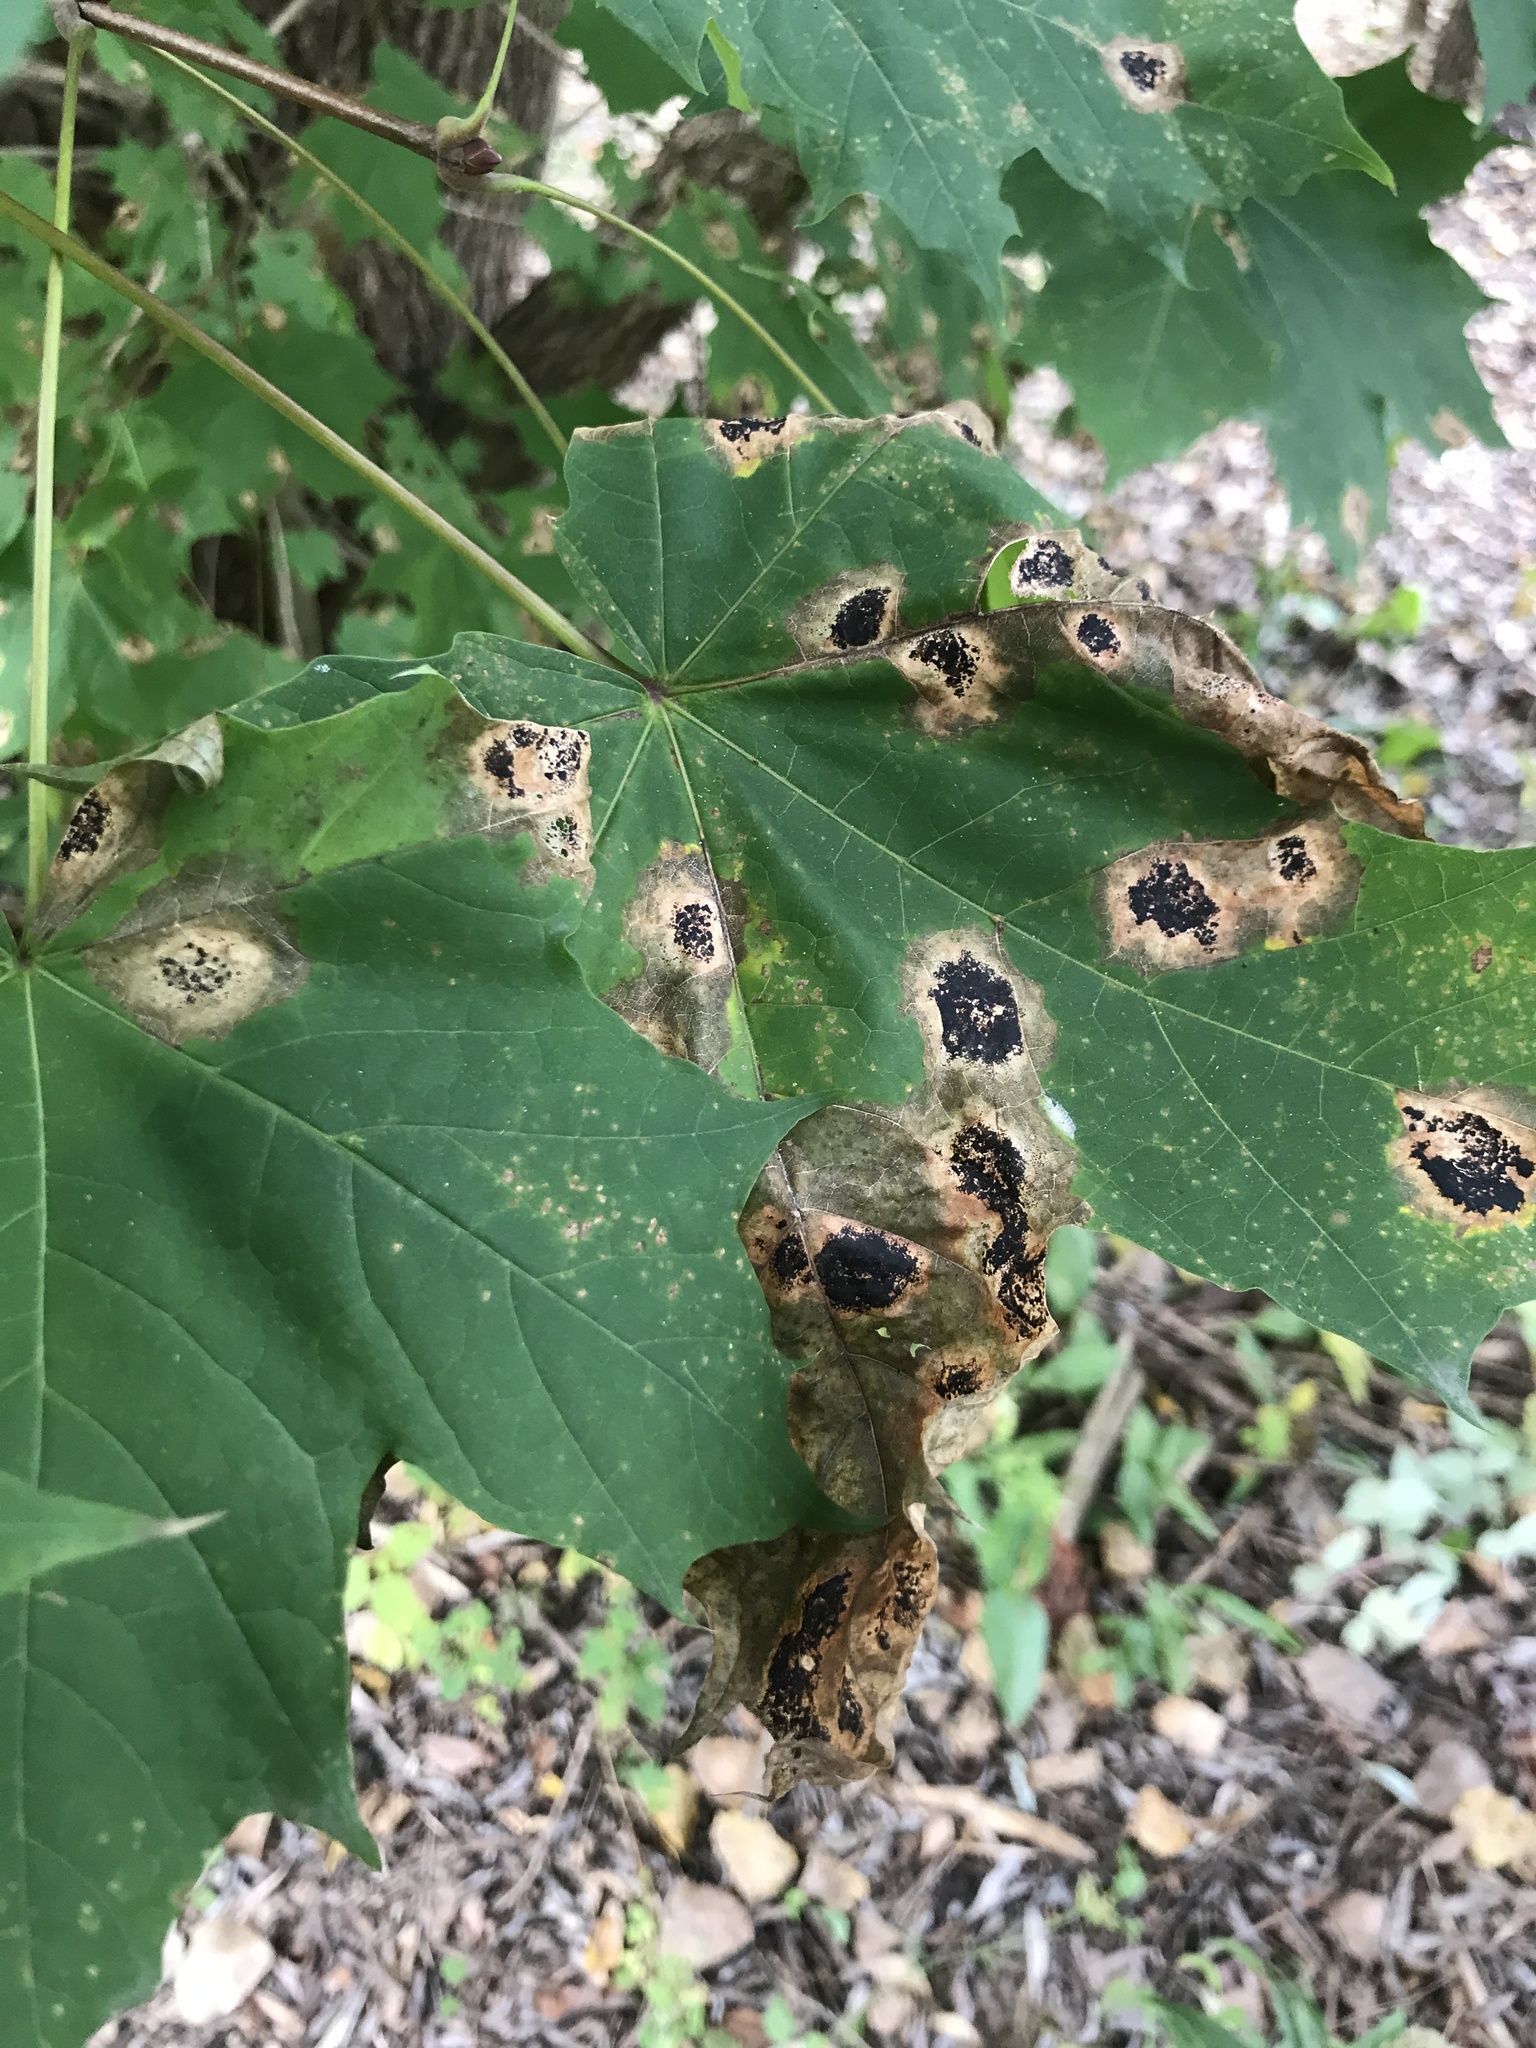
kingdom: Fungi
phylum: Ascomycota
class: Leotiomycetes
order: Rhytismatales
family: Rhytismataceae
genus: Rhytisma
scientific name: Rhytisma acerinum
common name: European tar spot
